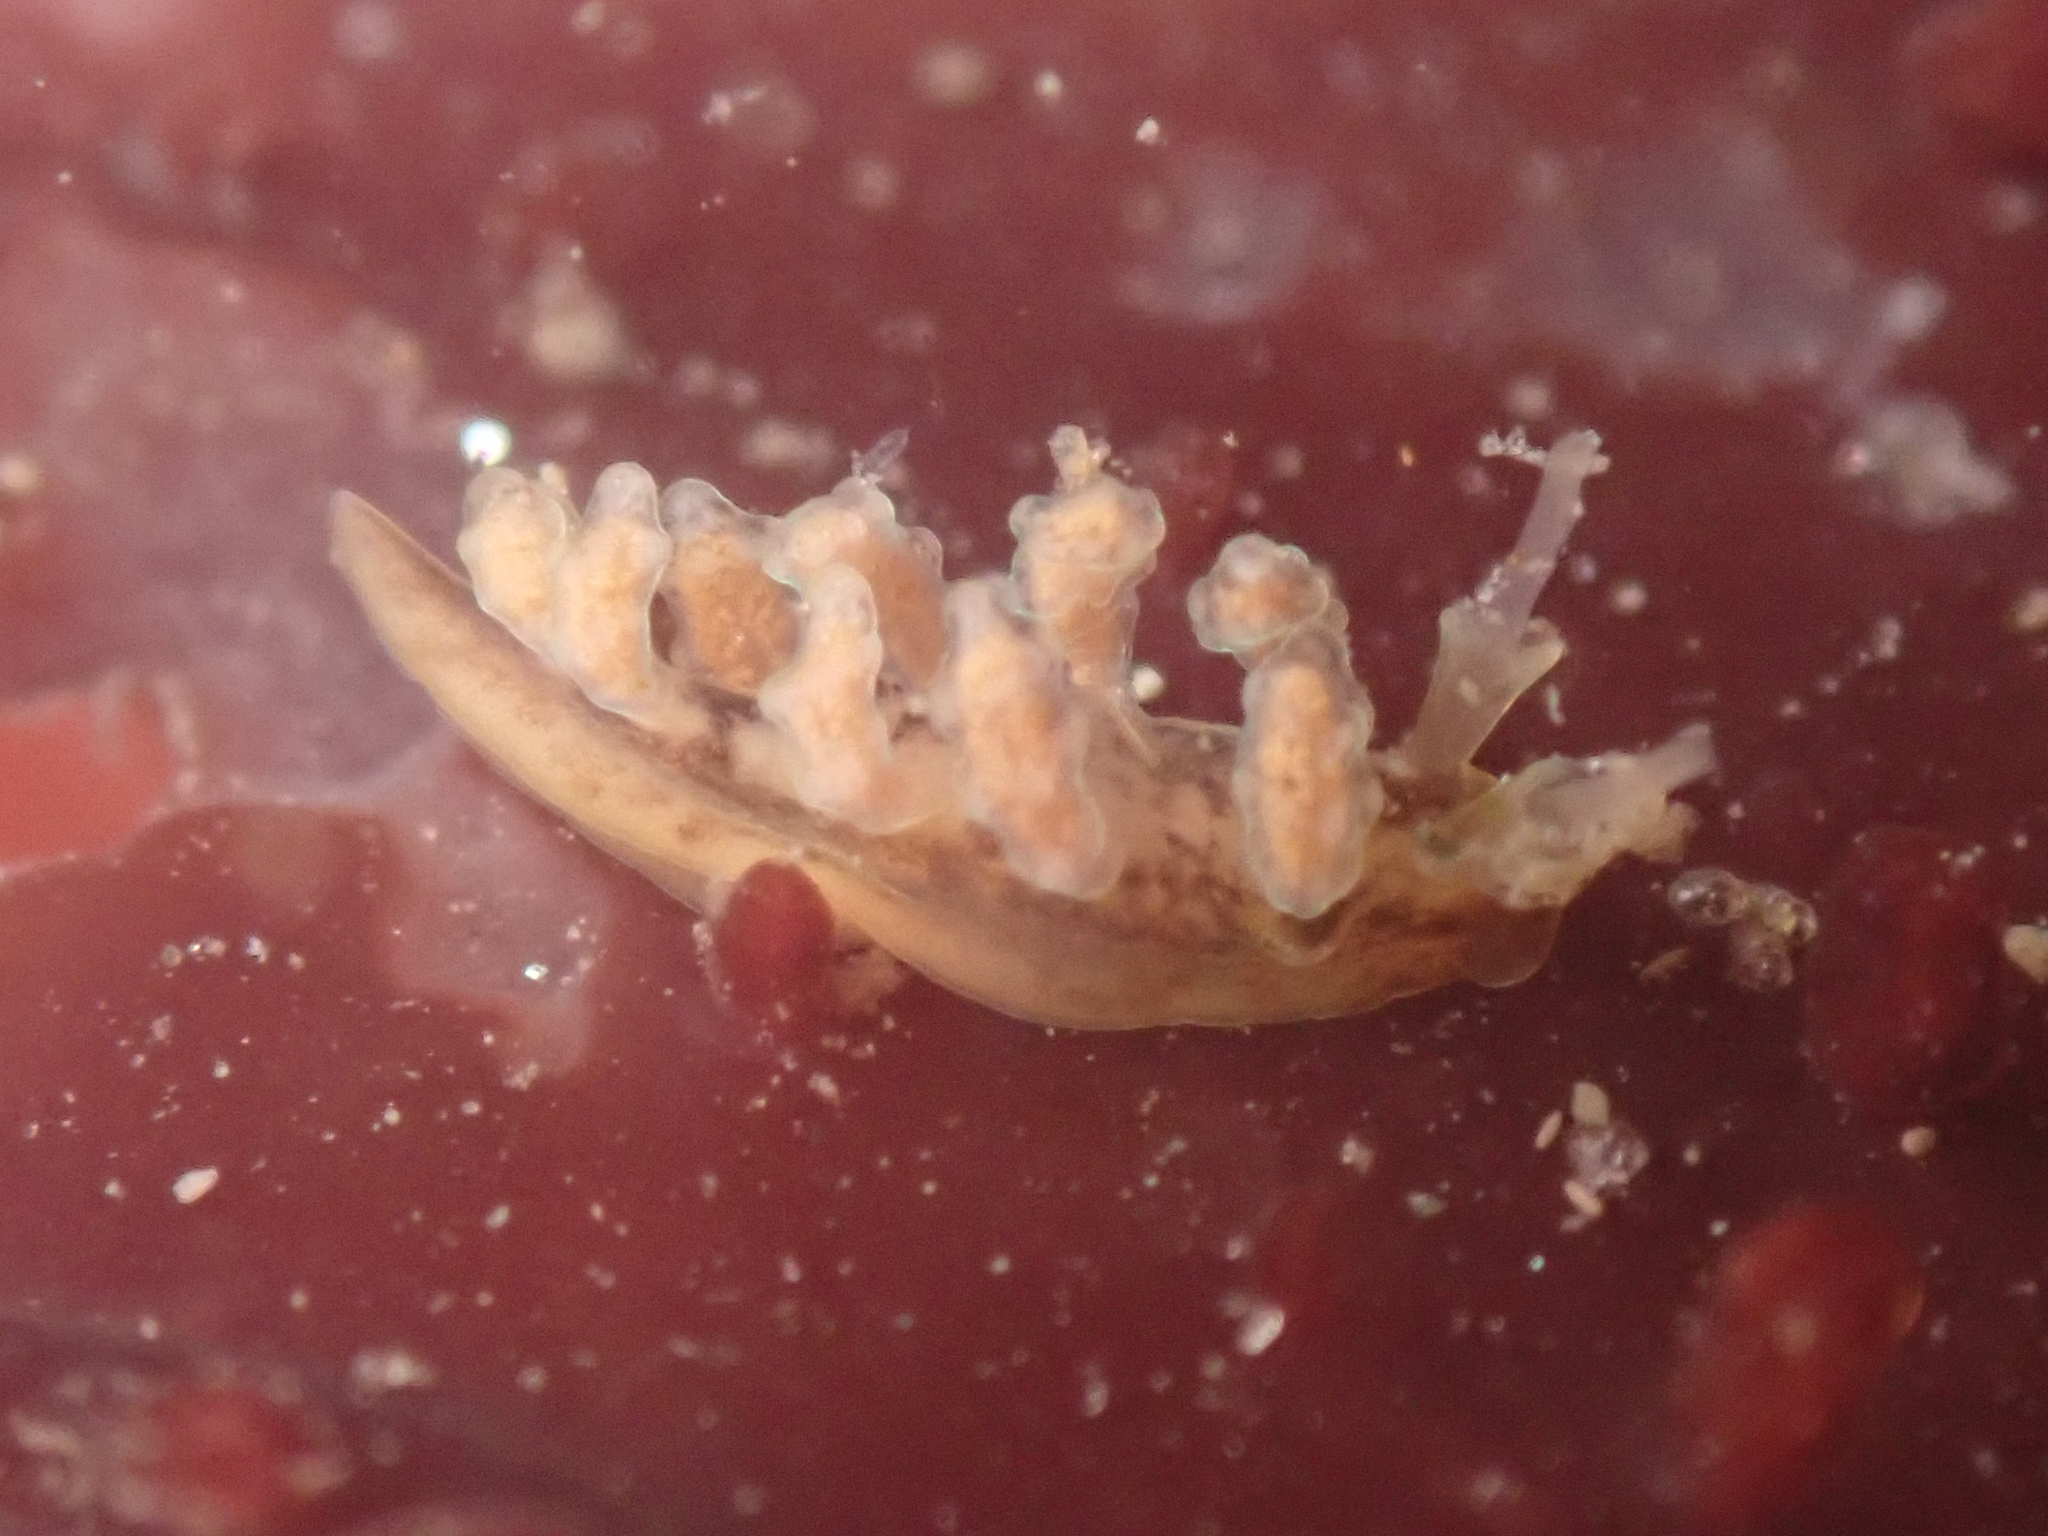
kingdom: Animalia
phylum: Mollusca
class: Gastropoda
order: Nudibranchia
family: Dotidae
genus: Doto
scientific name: Doto columbiana
